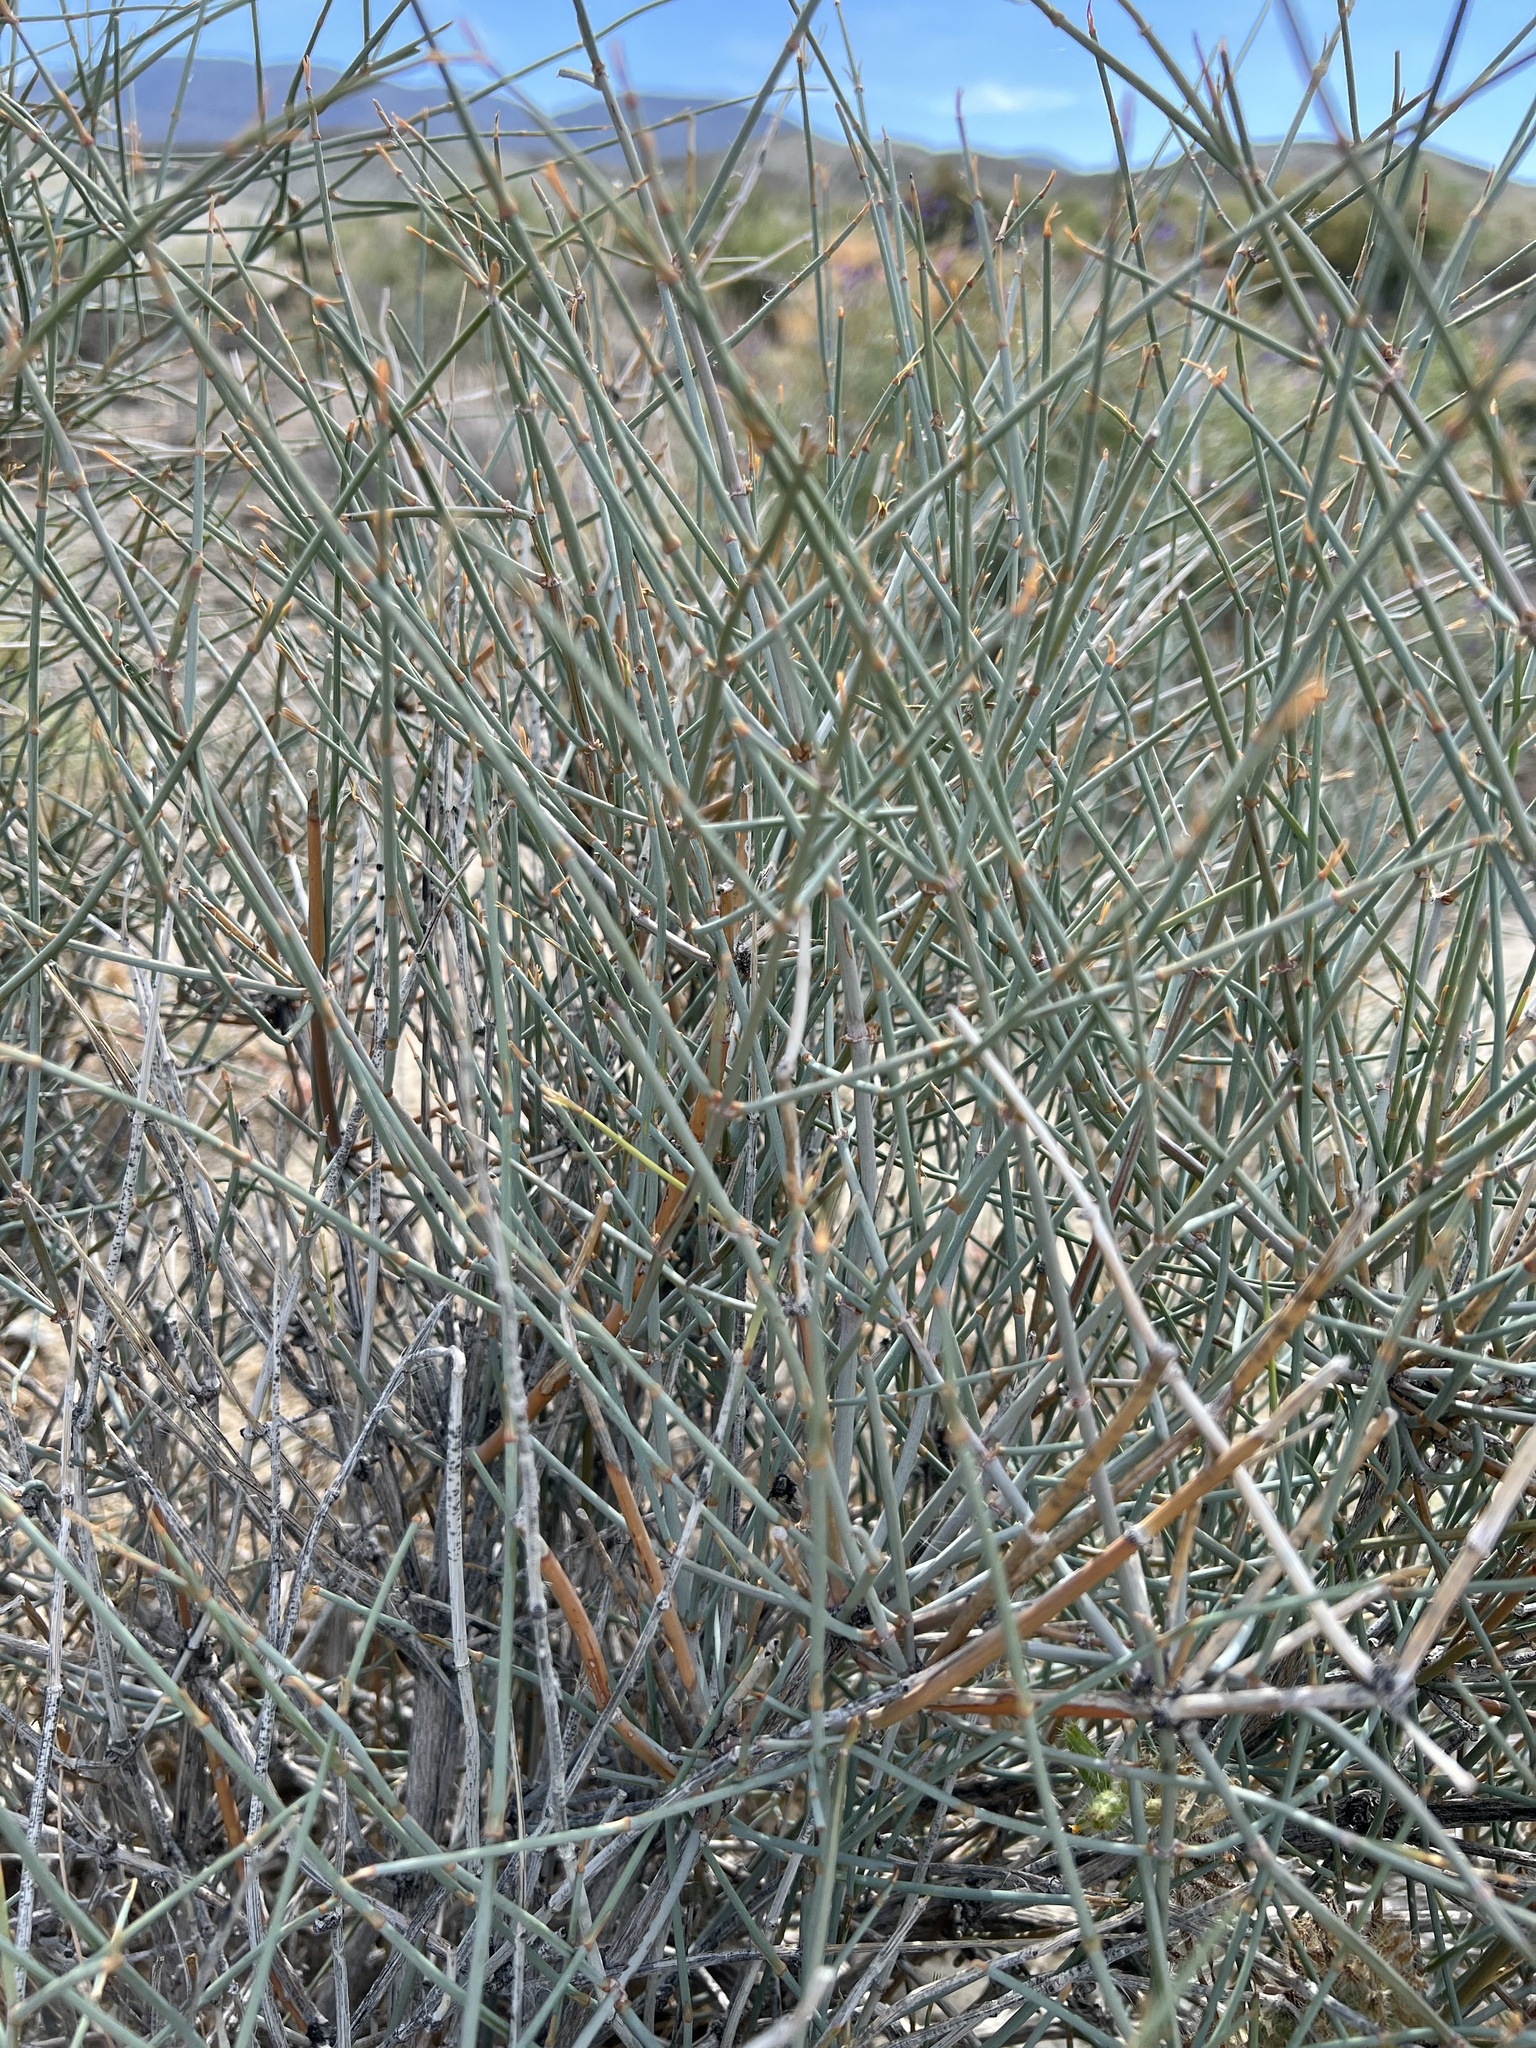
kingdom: Plantae
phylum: Tracheophyta
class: Gnetopsida
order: Ephedrales
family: Ephedraceae
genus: Ephedra
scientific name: Ephedra nevadensis
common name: Gray ephedra
